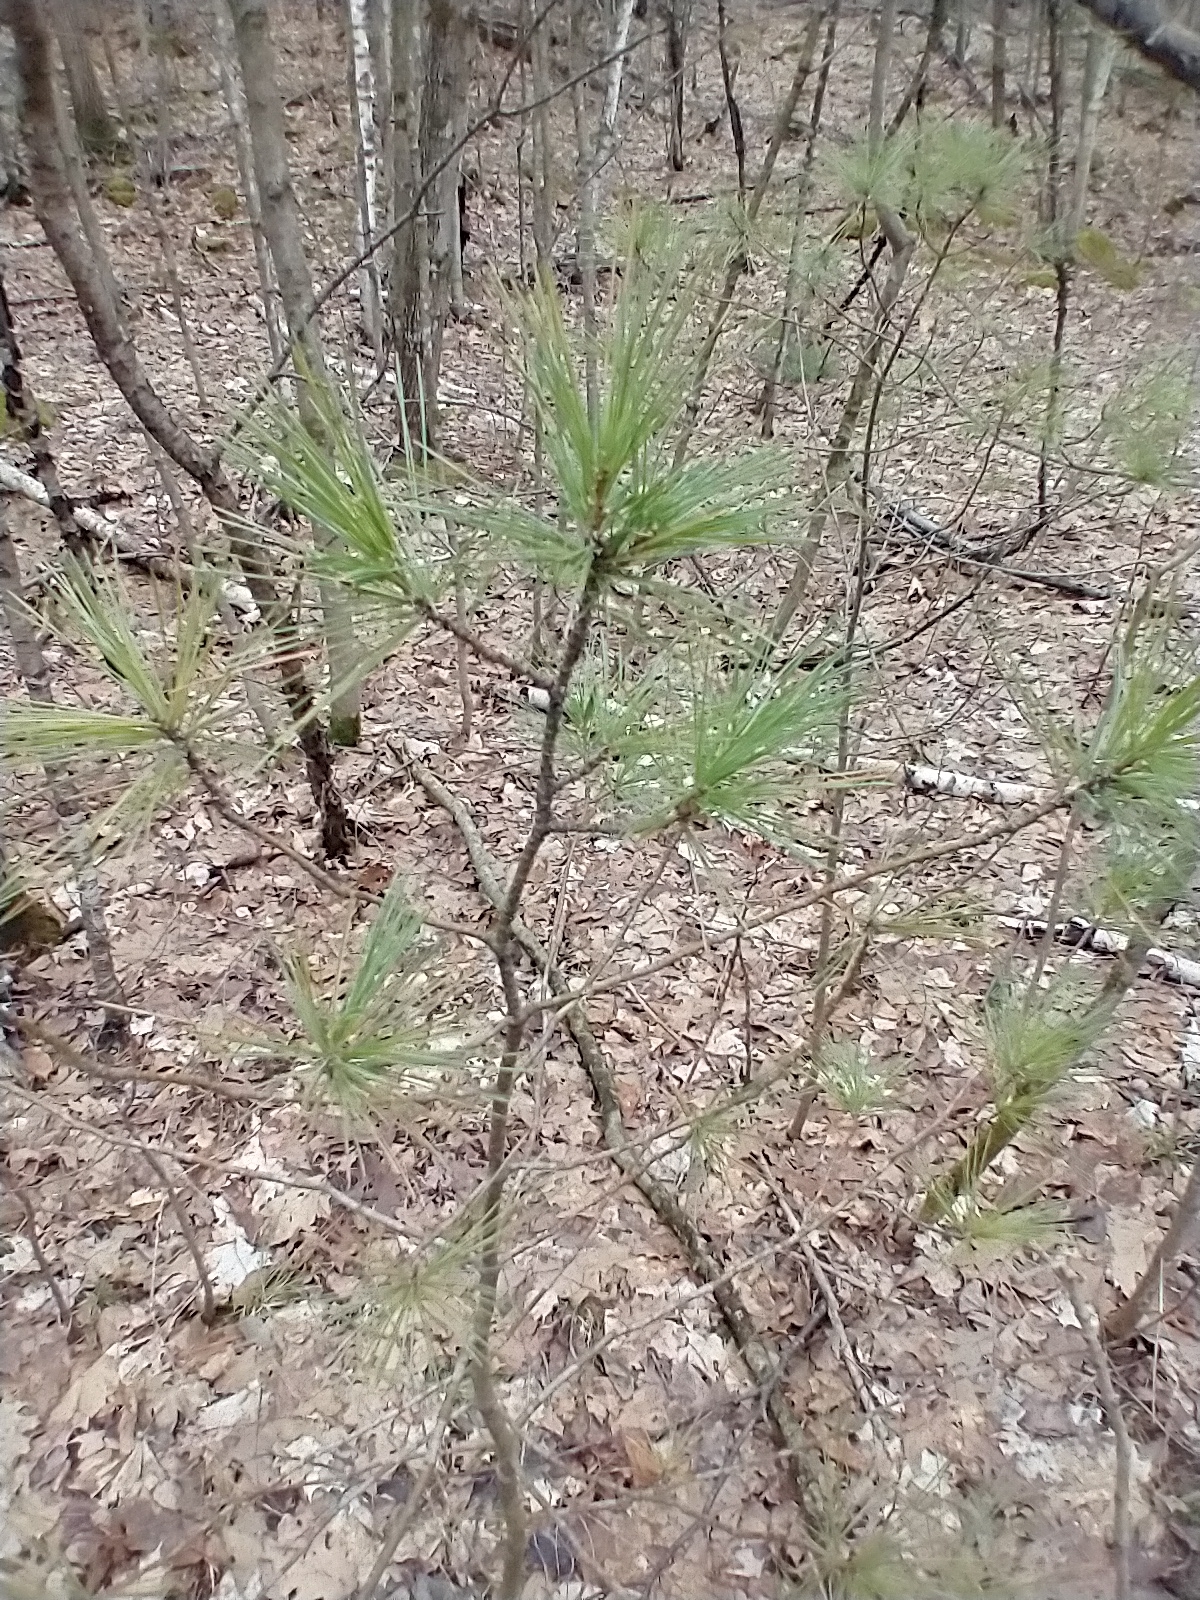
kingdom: Plantae
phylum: Tracheophyta
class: Pinopsida
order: Pinales
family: Pinaceae
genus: Pinus
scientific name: Pinus strobus
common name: Weymouth pine
